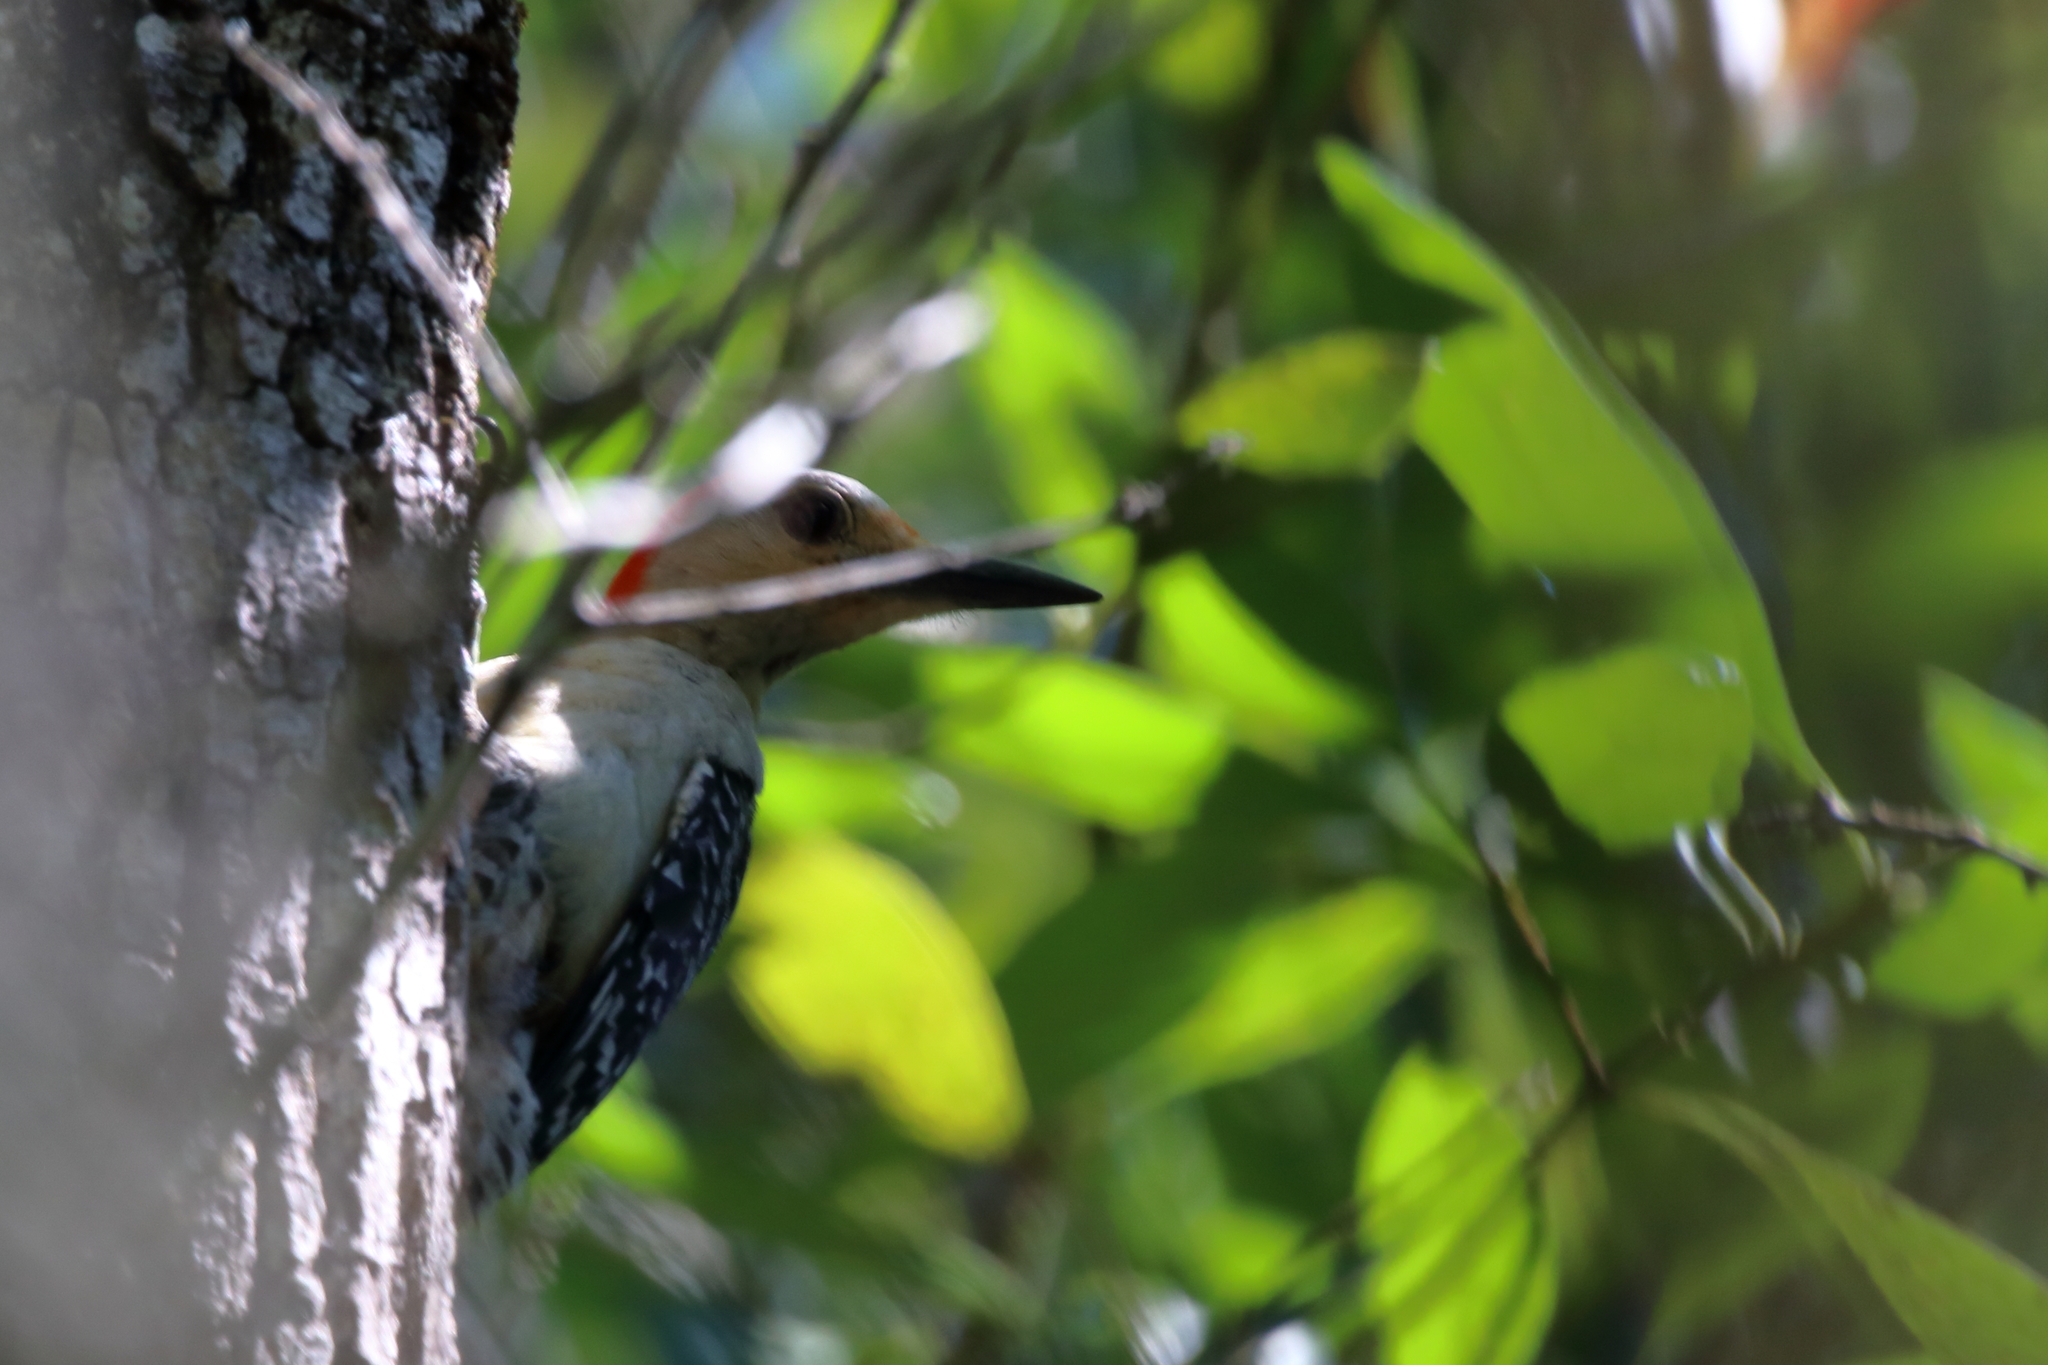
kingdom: Animalia
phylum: Chordata
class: Aves
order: Piciformes
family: Picidae
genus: Melanerpes
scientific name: Melanerpes carolinus
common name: Red-bellied woodpecker
